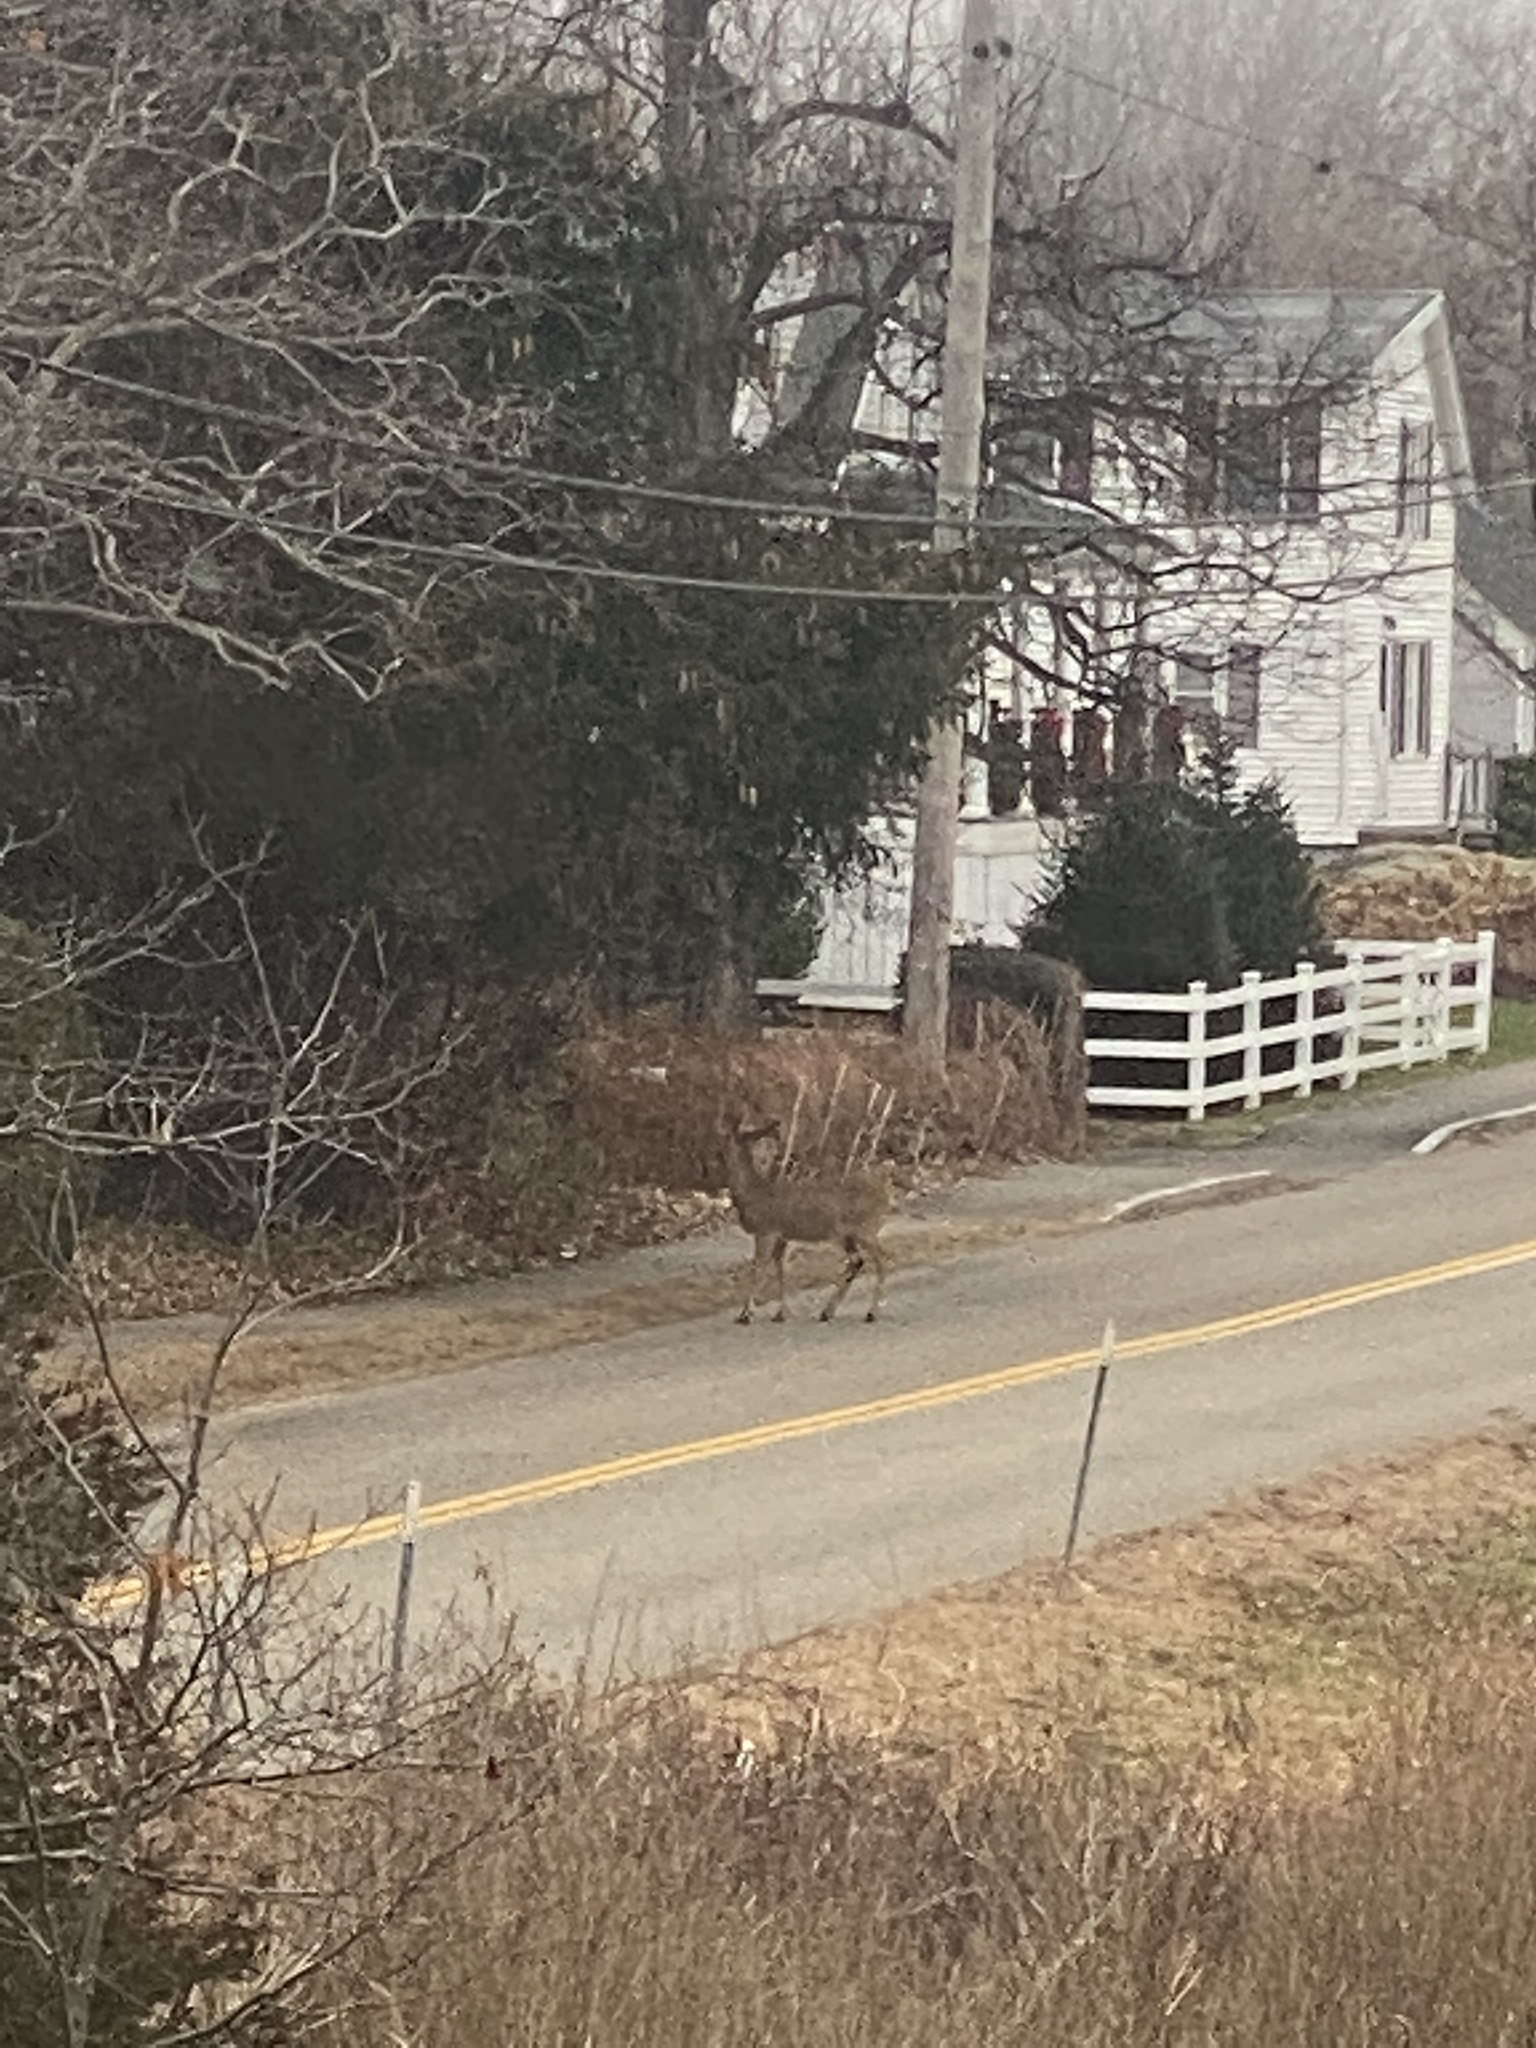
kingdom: Animalia
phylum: Chordata
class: Mammalia
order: Artiodactyla
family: Cervidae
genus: Odocoileus
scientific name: Odocoileus virginianus
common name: White-tailed deer
